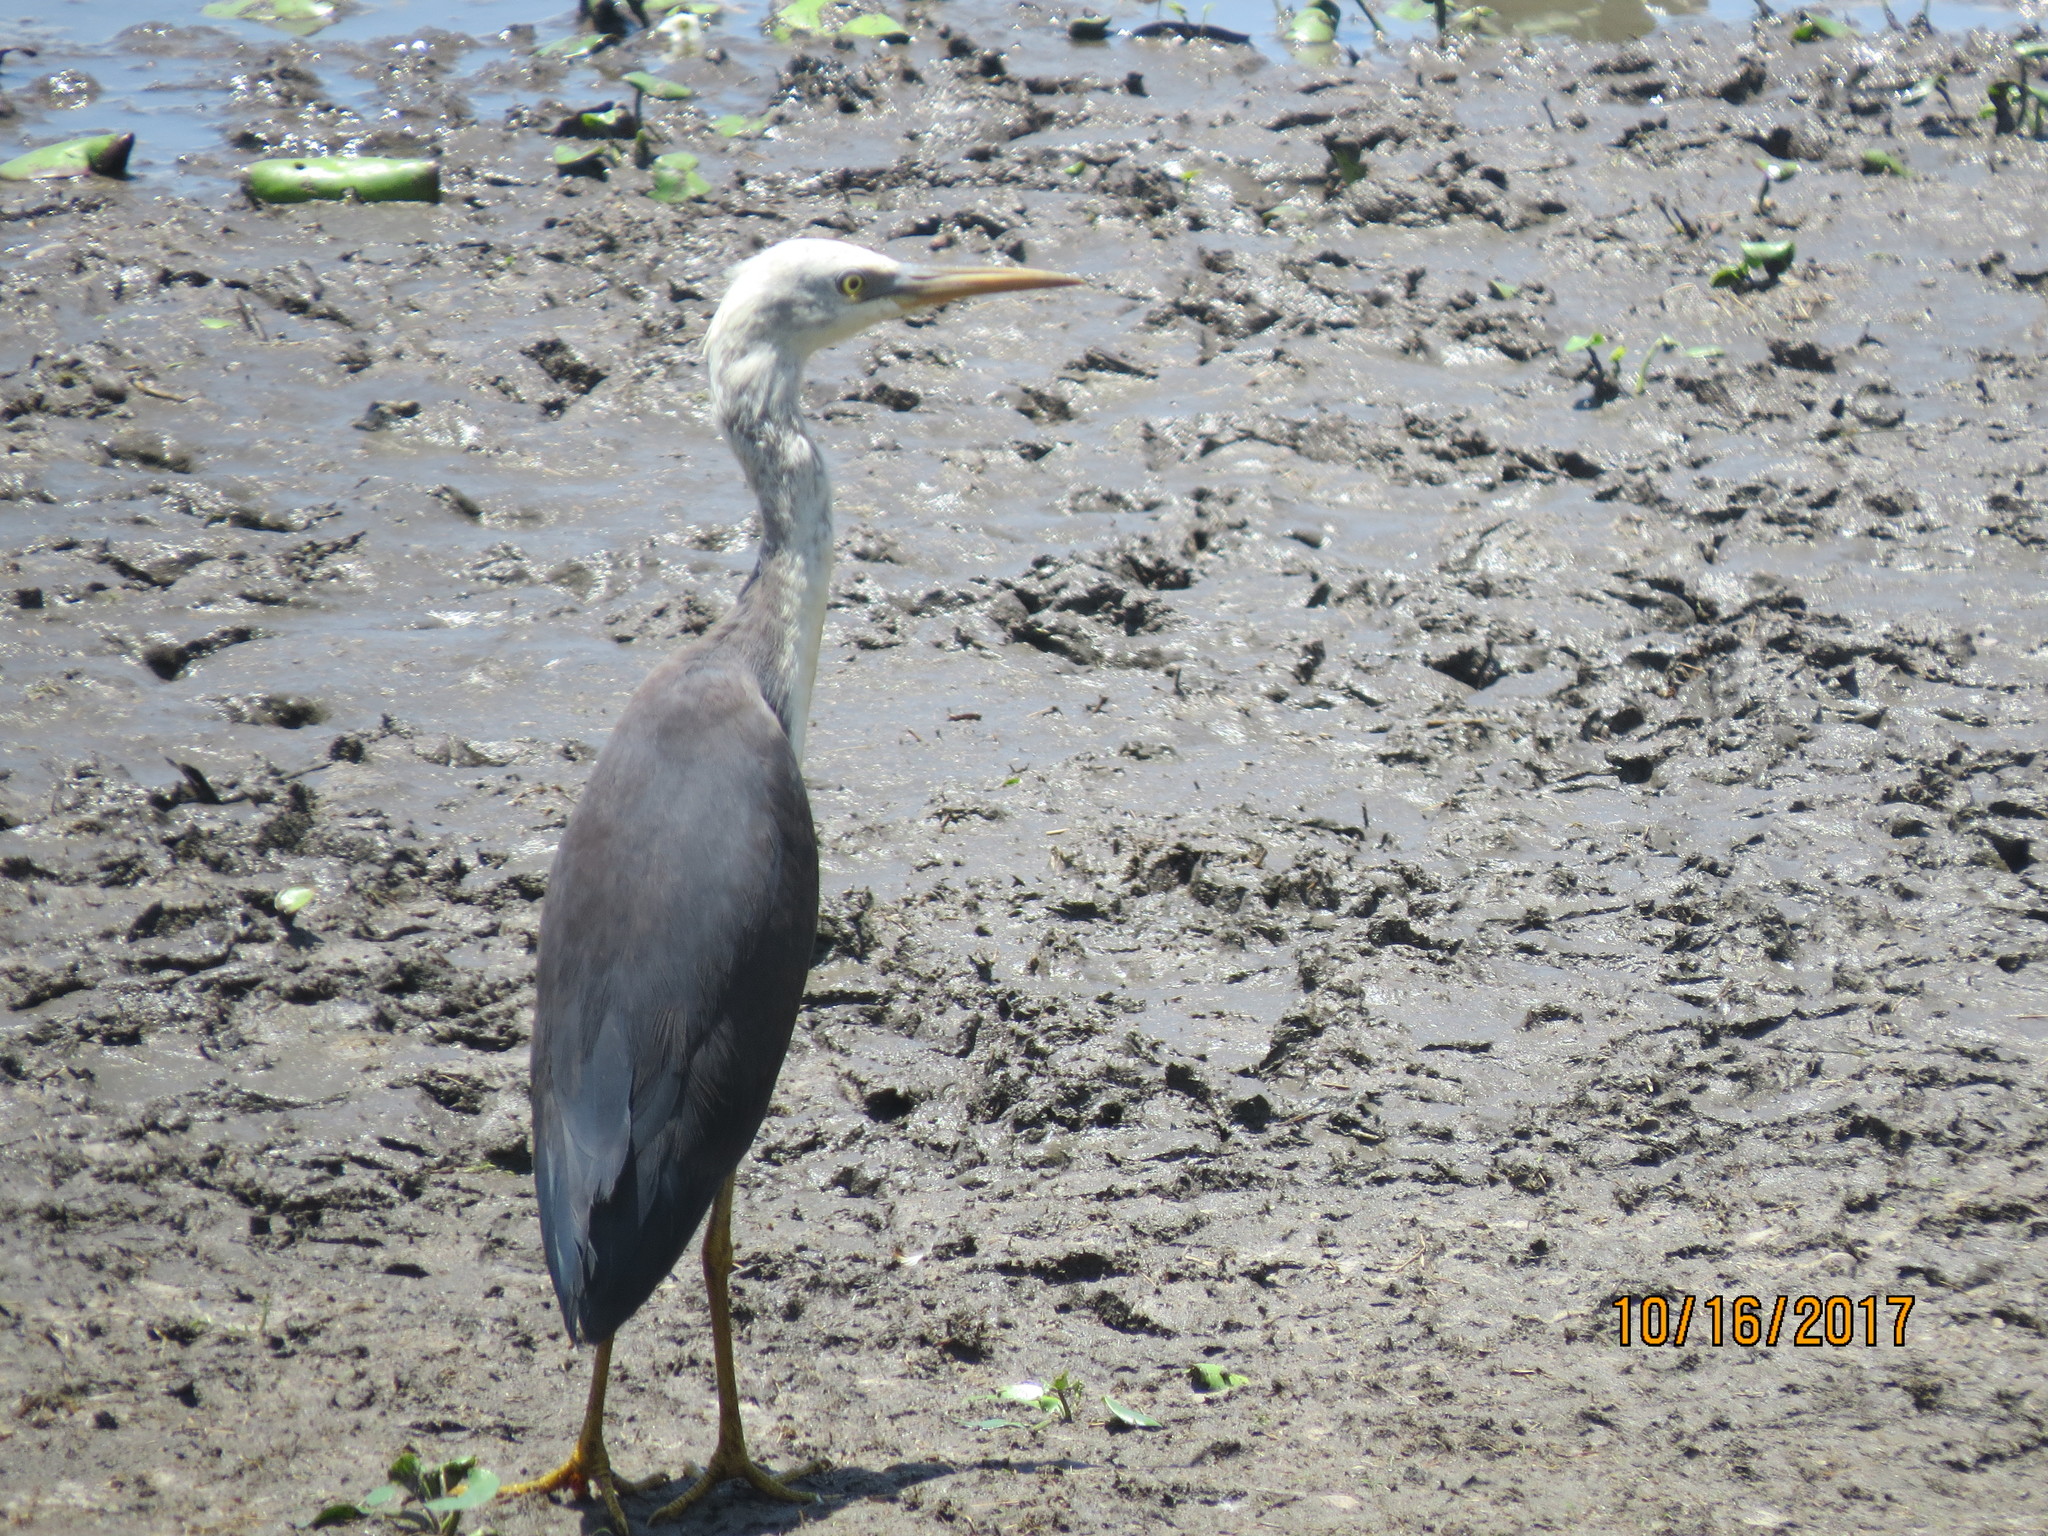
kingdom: Animalia
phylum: Chordata
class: Aves
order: Pelecaniformes
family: Ardeidae
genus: Egretta
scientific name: Egretta picata
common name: Pied heron
